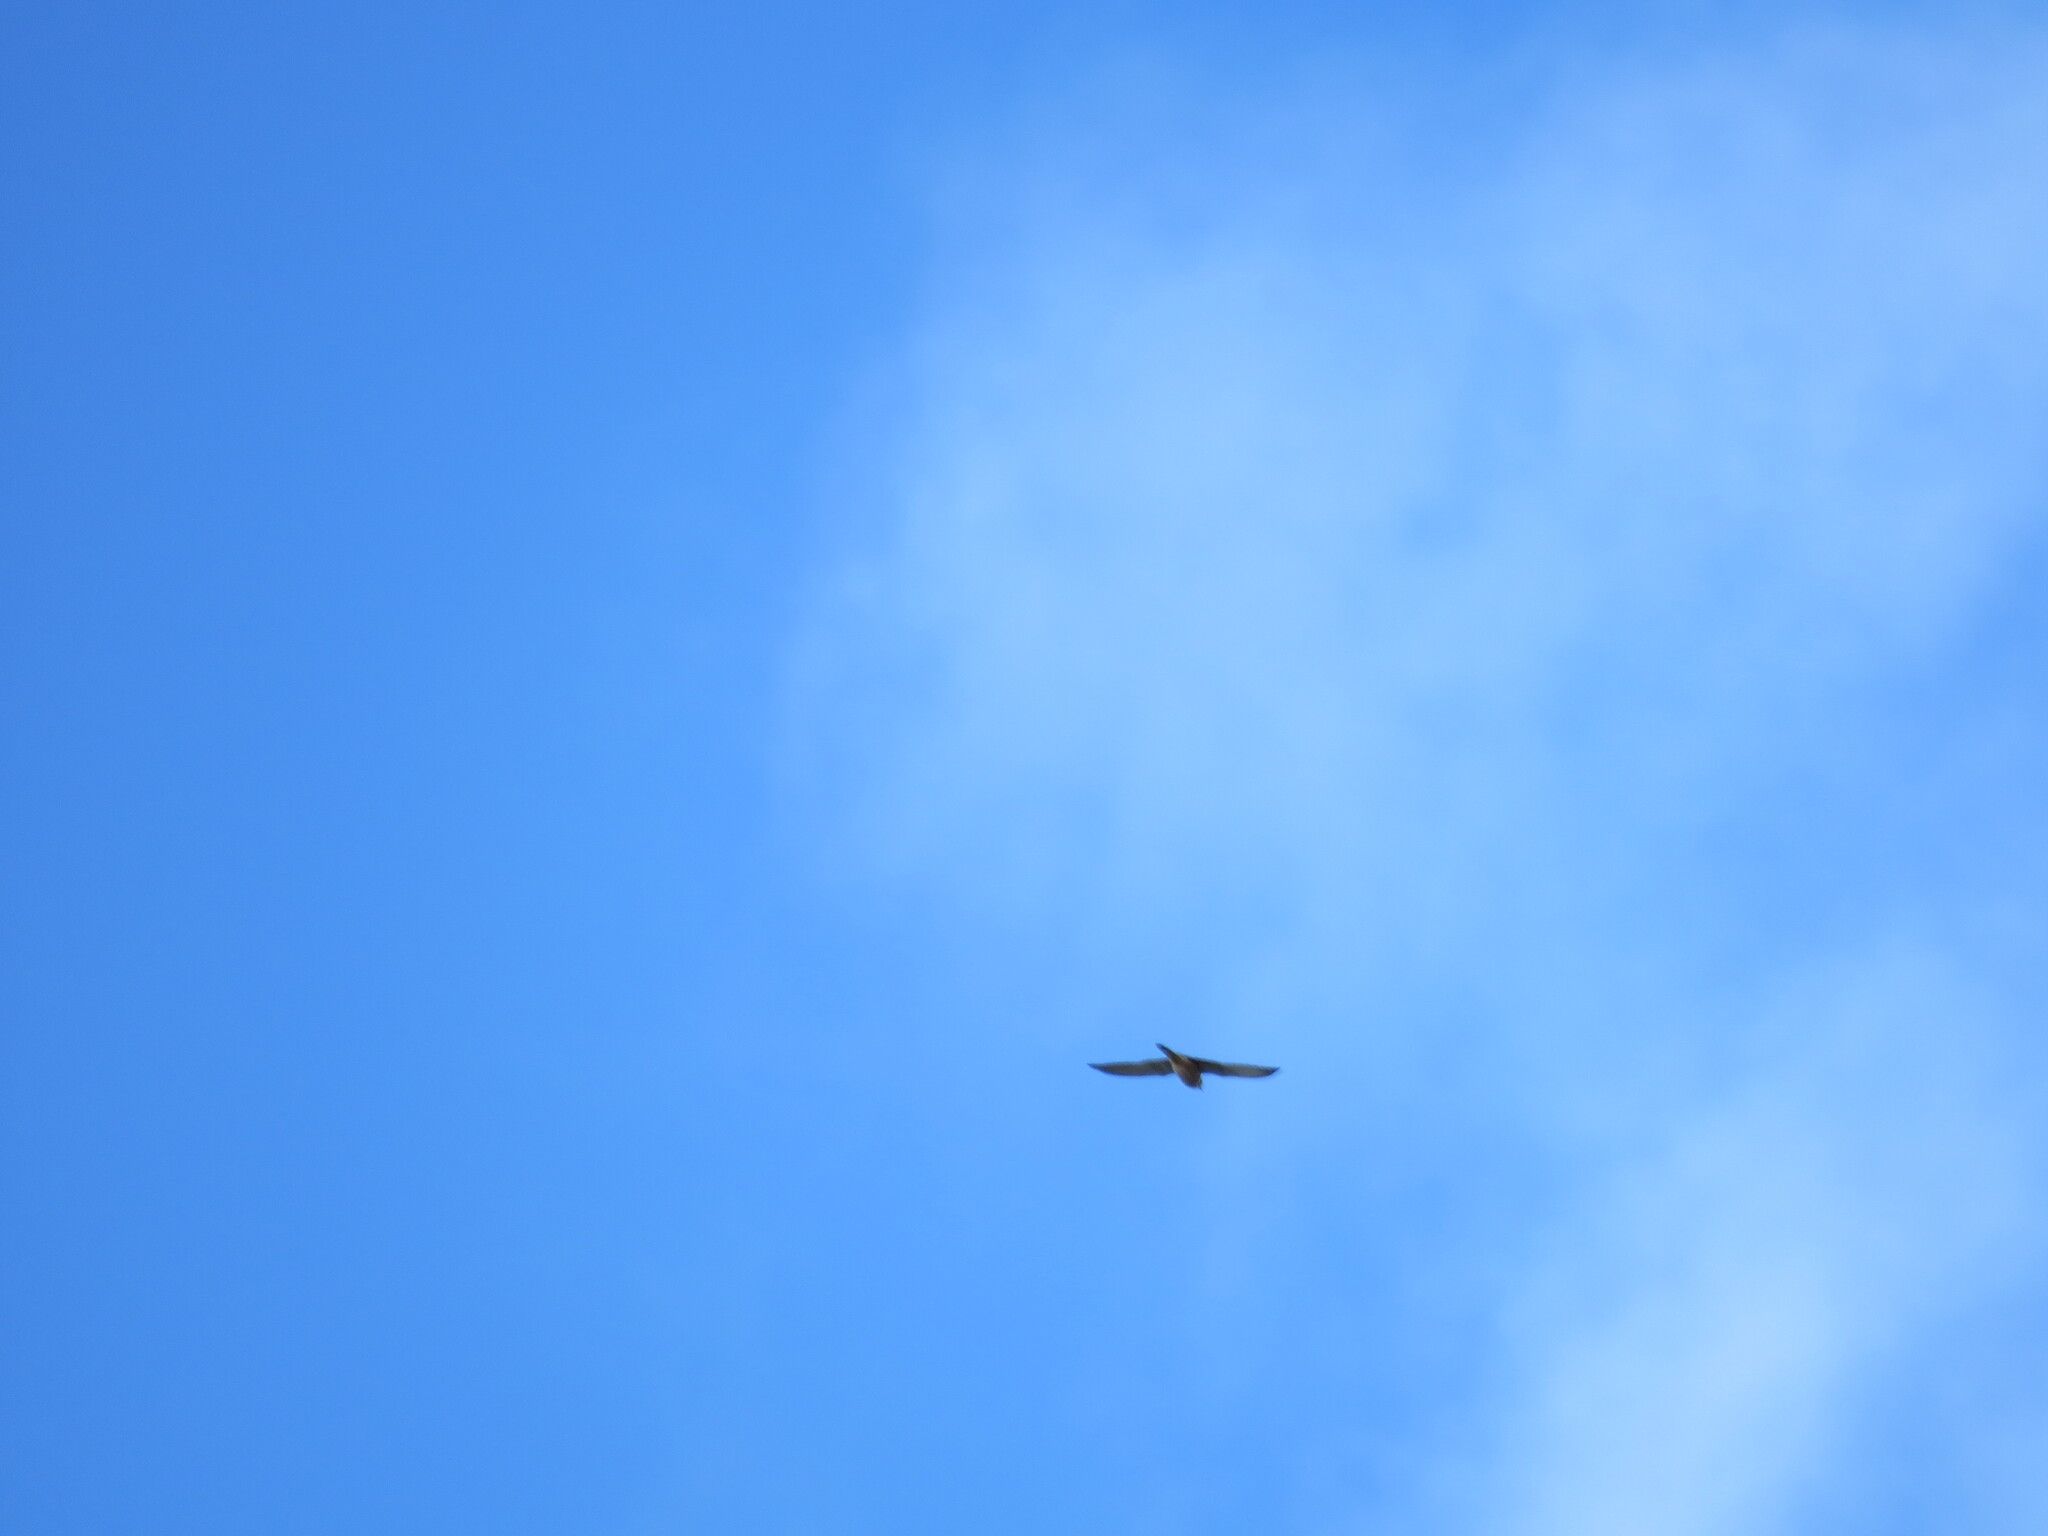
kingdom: Animalia
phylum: Chordata
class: Aves
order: Falconiformes
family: Falconidae
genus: Falco
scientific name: Falco tinnunculus
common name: Common kestrel
